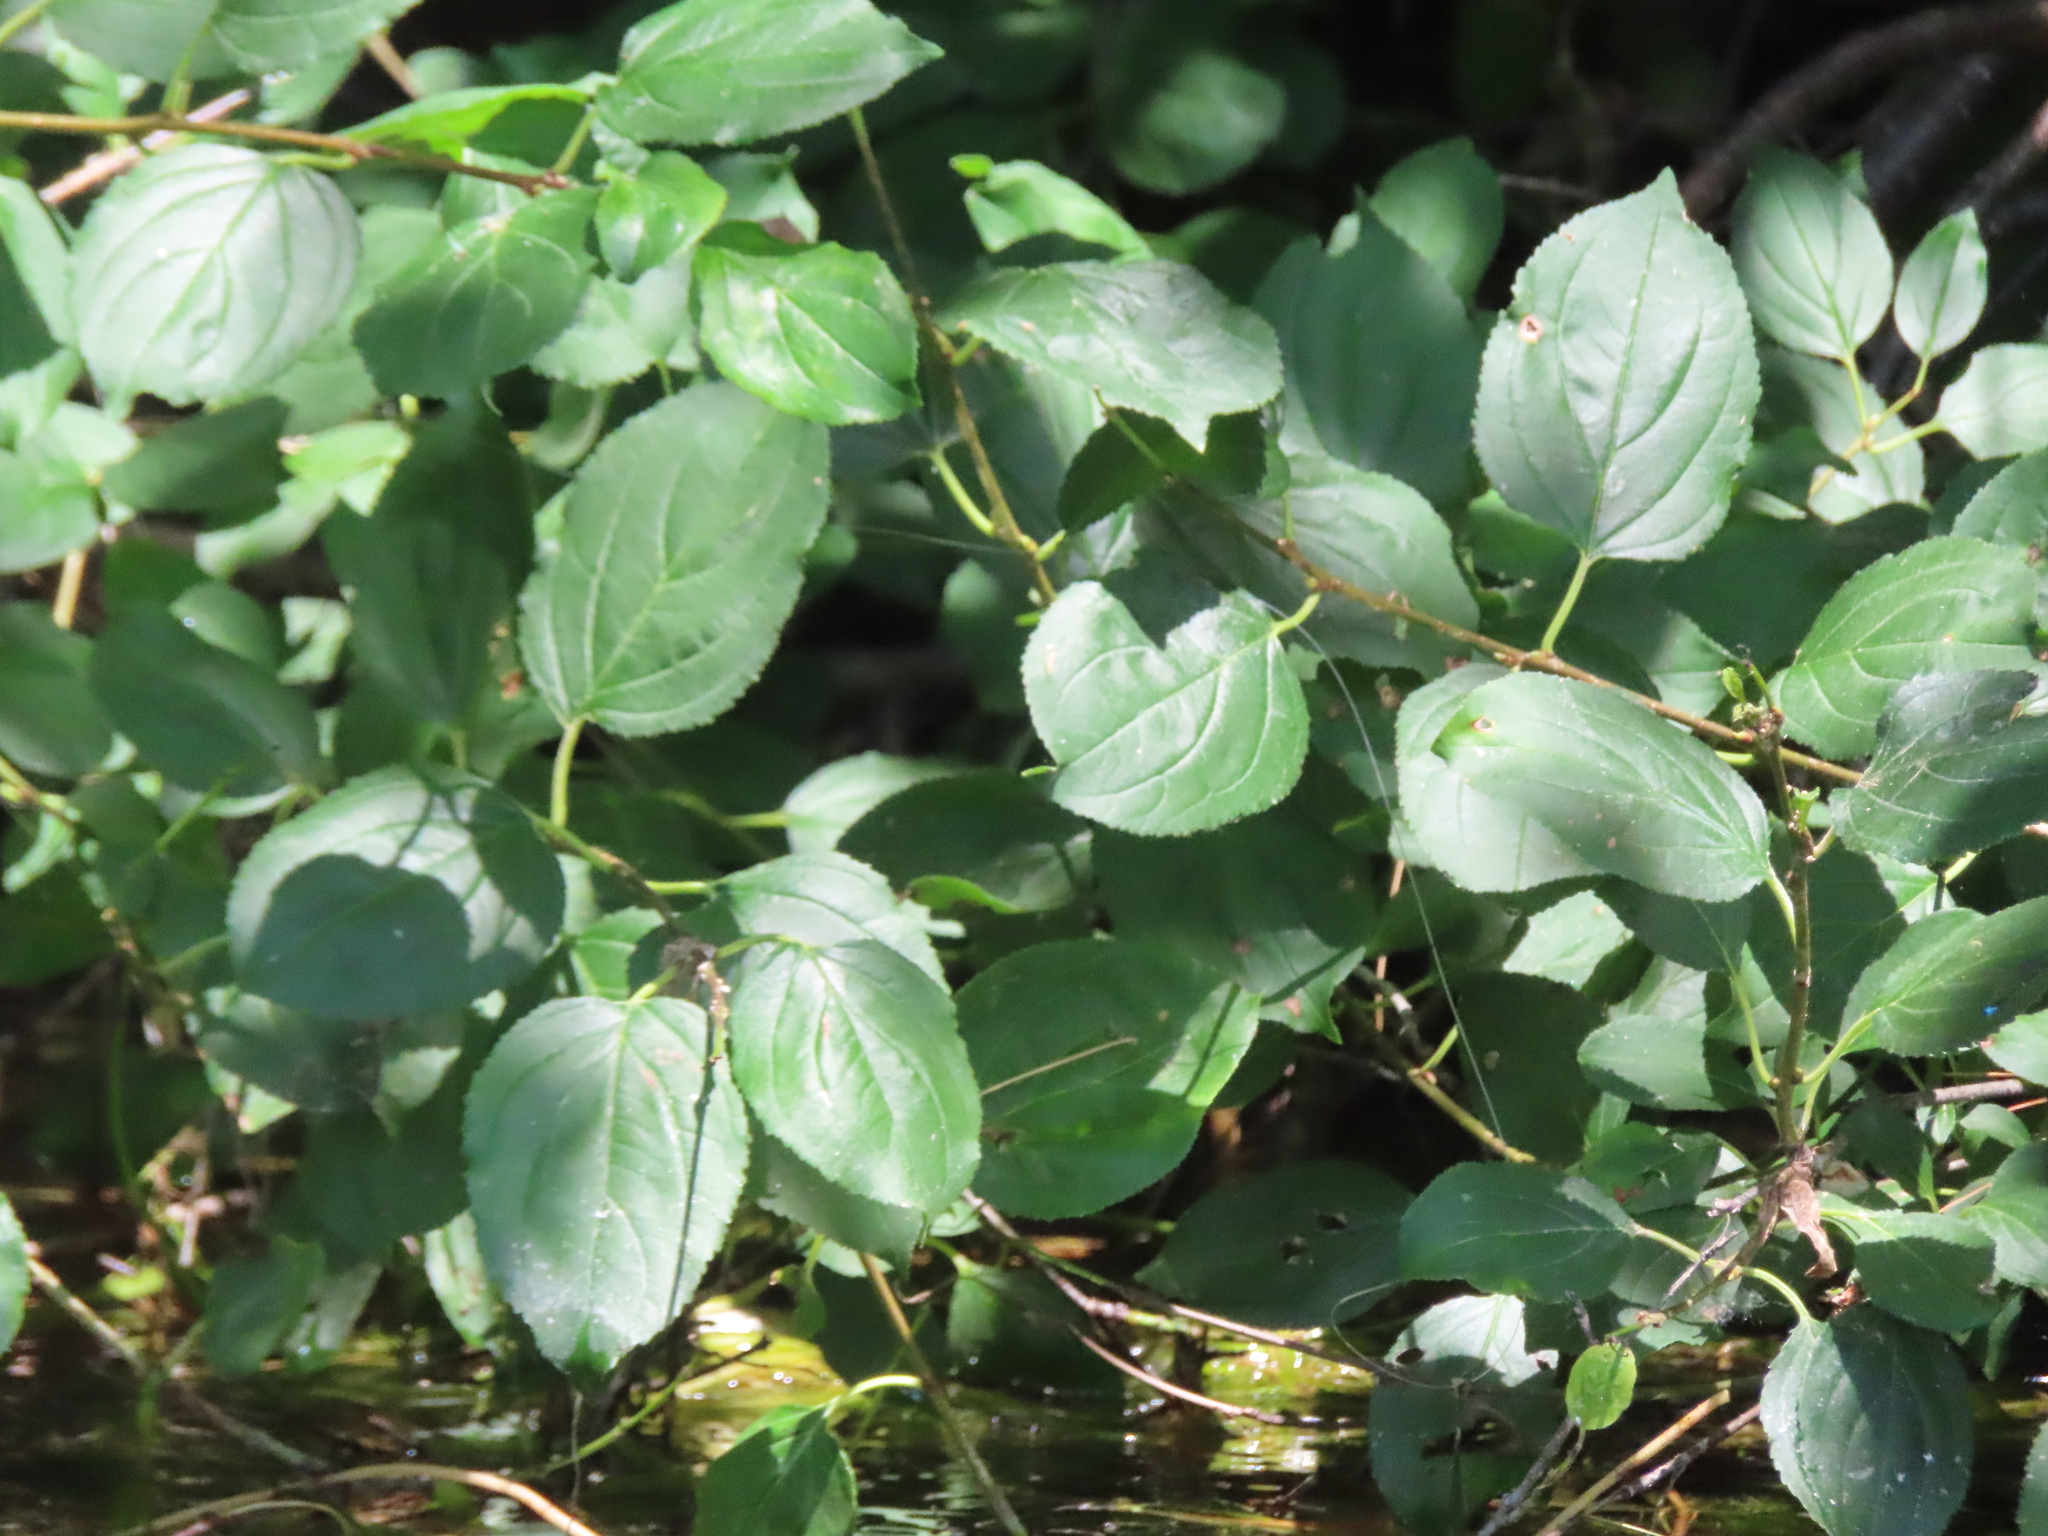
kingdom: Plantae
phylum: Tracheophyta
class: Magnoliopsida
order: Rosales
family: Rhamnaceae
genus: Rhamnus
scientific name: Rhamnus cathartica
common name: Common buckthorn
